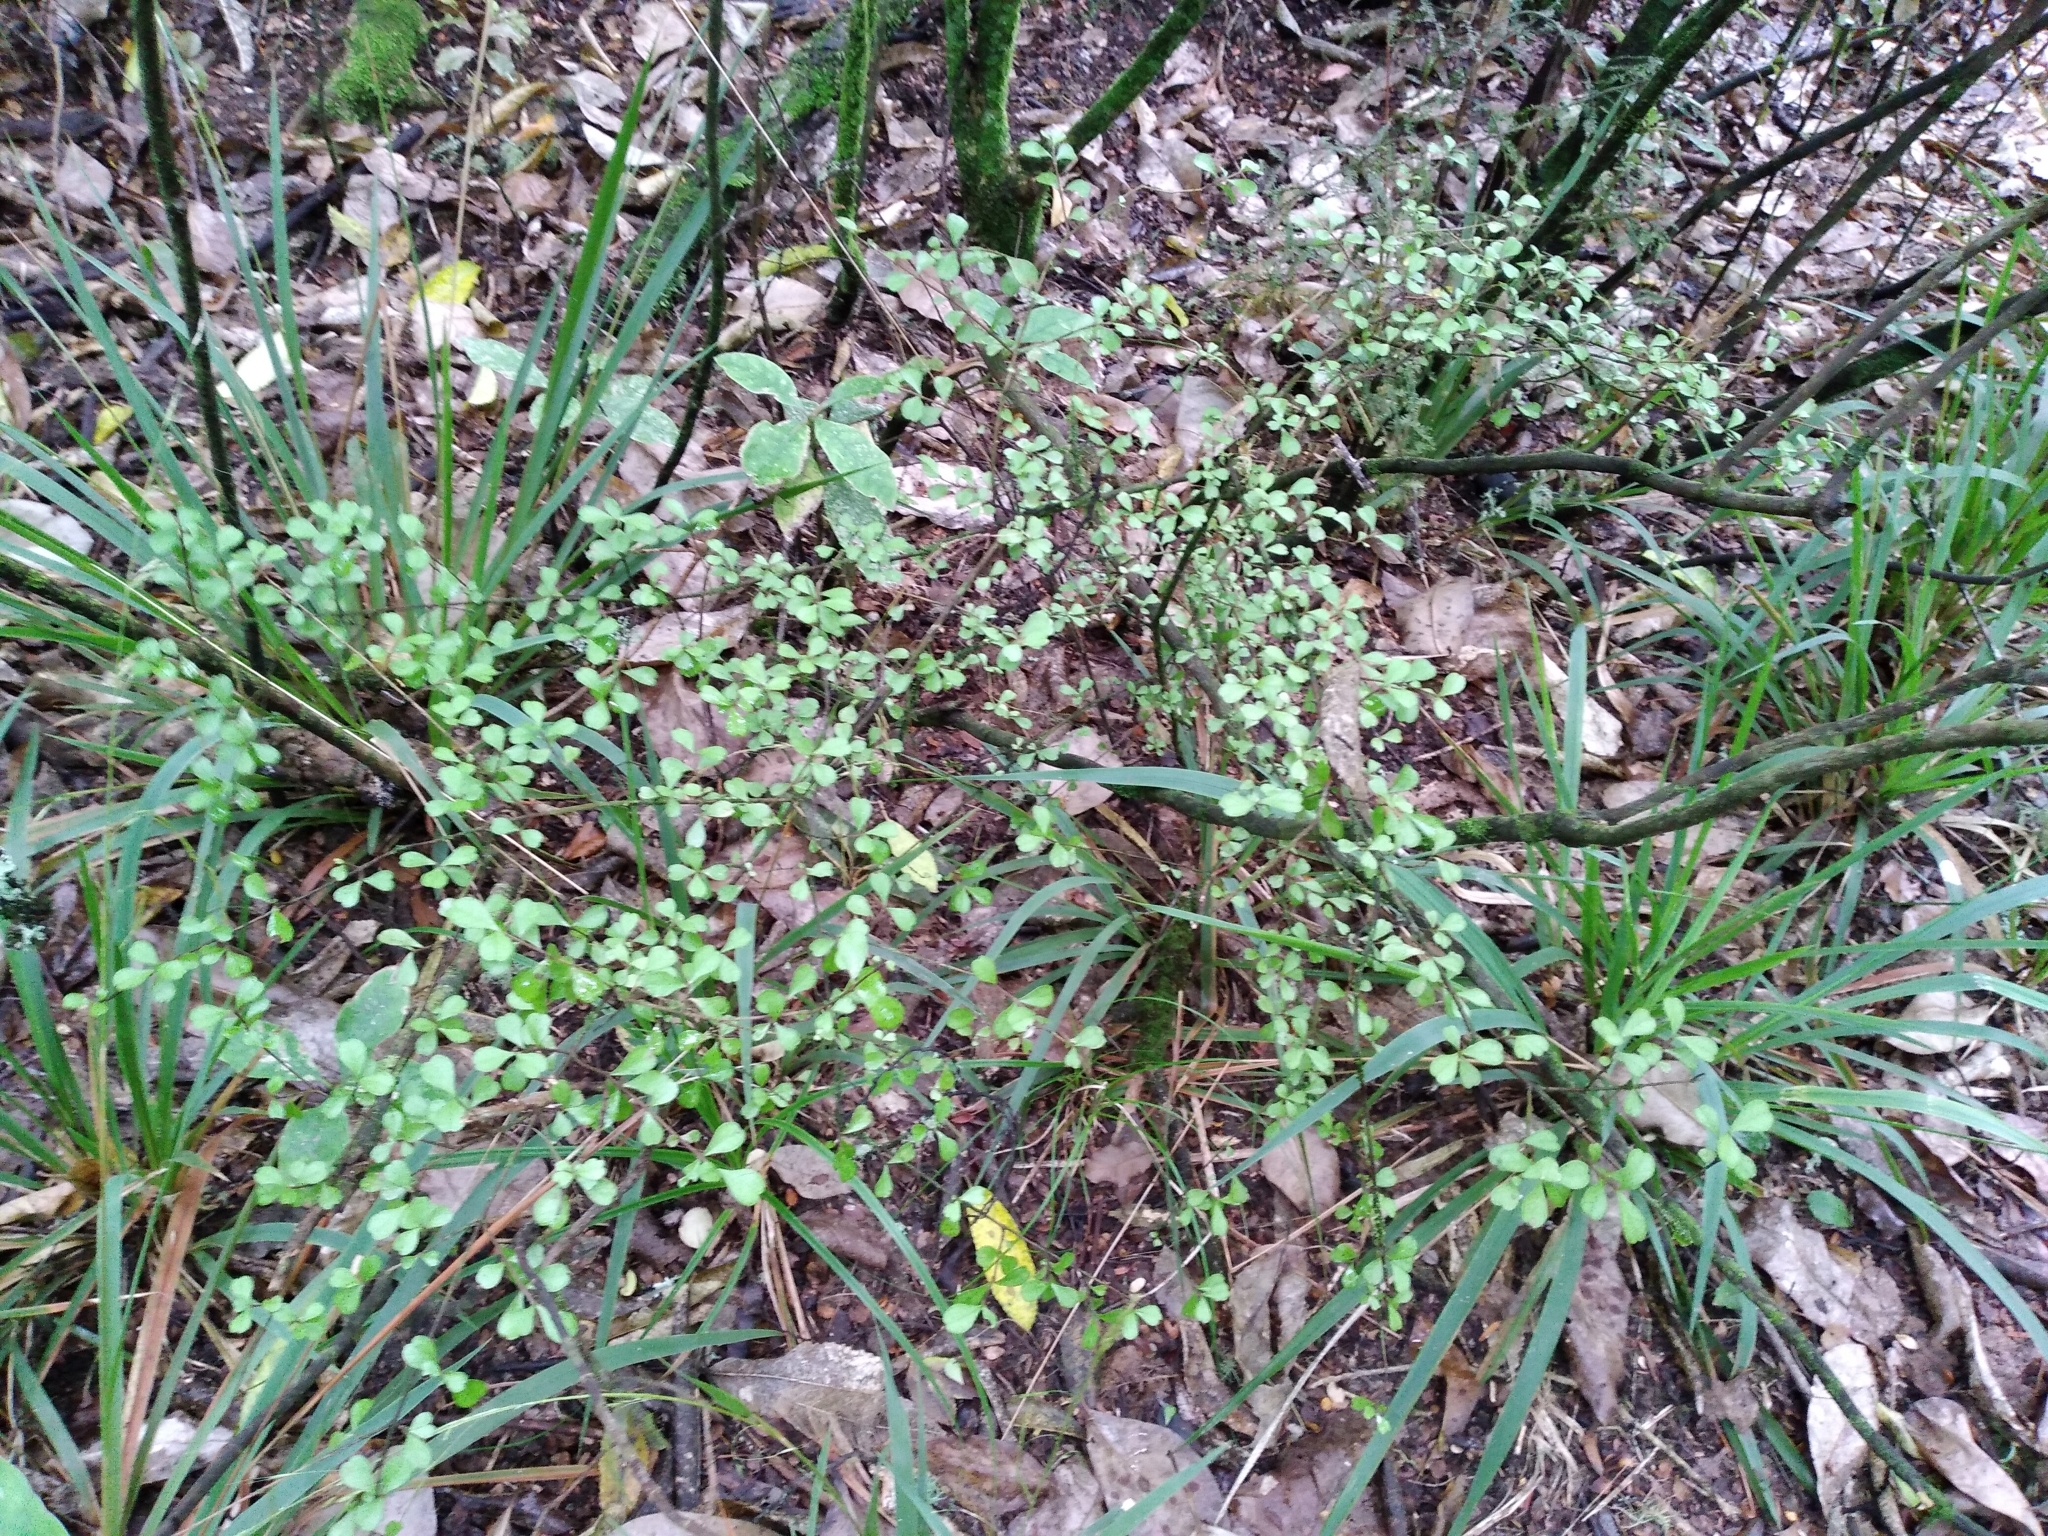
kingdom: Plantae
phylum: Tracheophyta
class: Magnoliopsida
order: Myrtales
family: Myrtaceae
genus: Lophomyrtus
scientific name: Lophomyrtus obcordata
